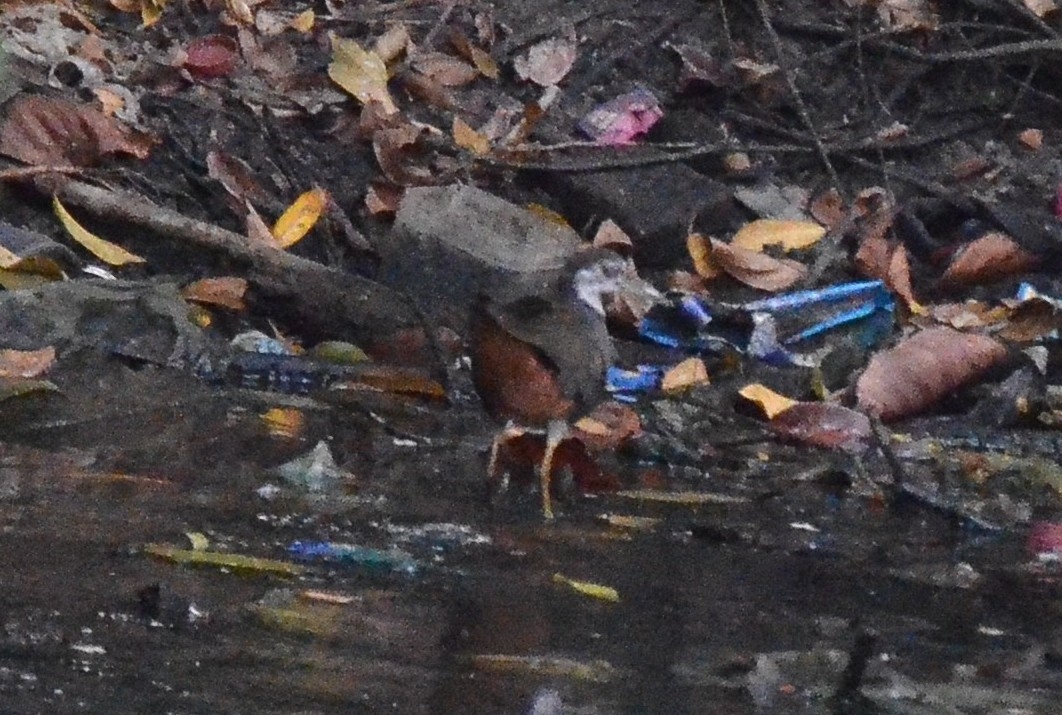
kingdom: Animalia
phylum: Chordata
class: Aves
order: Gruiformes
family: Rallidae
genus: Amaurornis
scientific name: Amaurornis phoenicurus
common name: White-breasted waterhen
